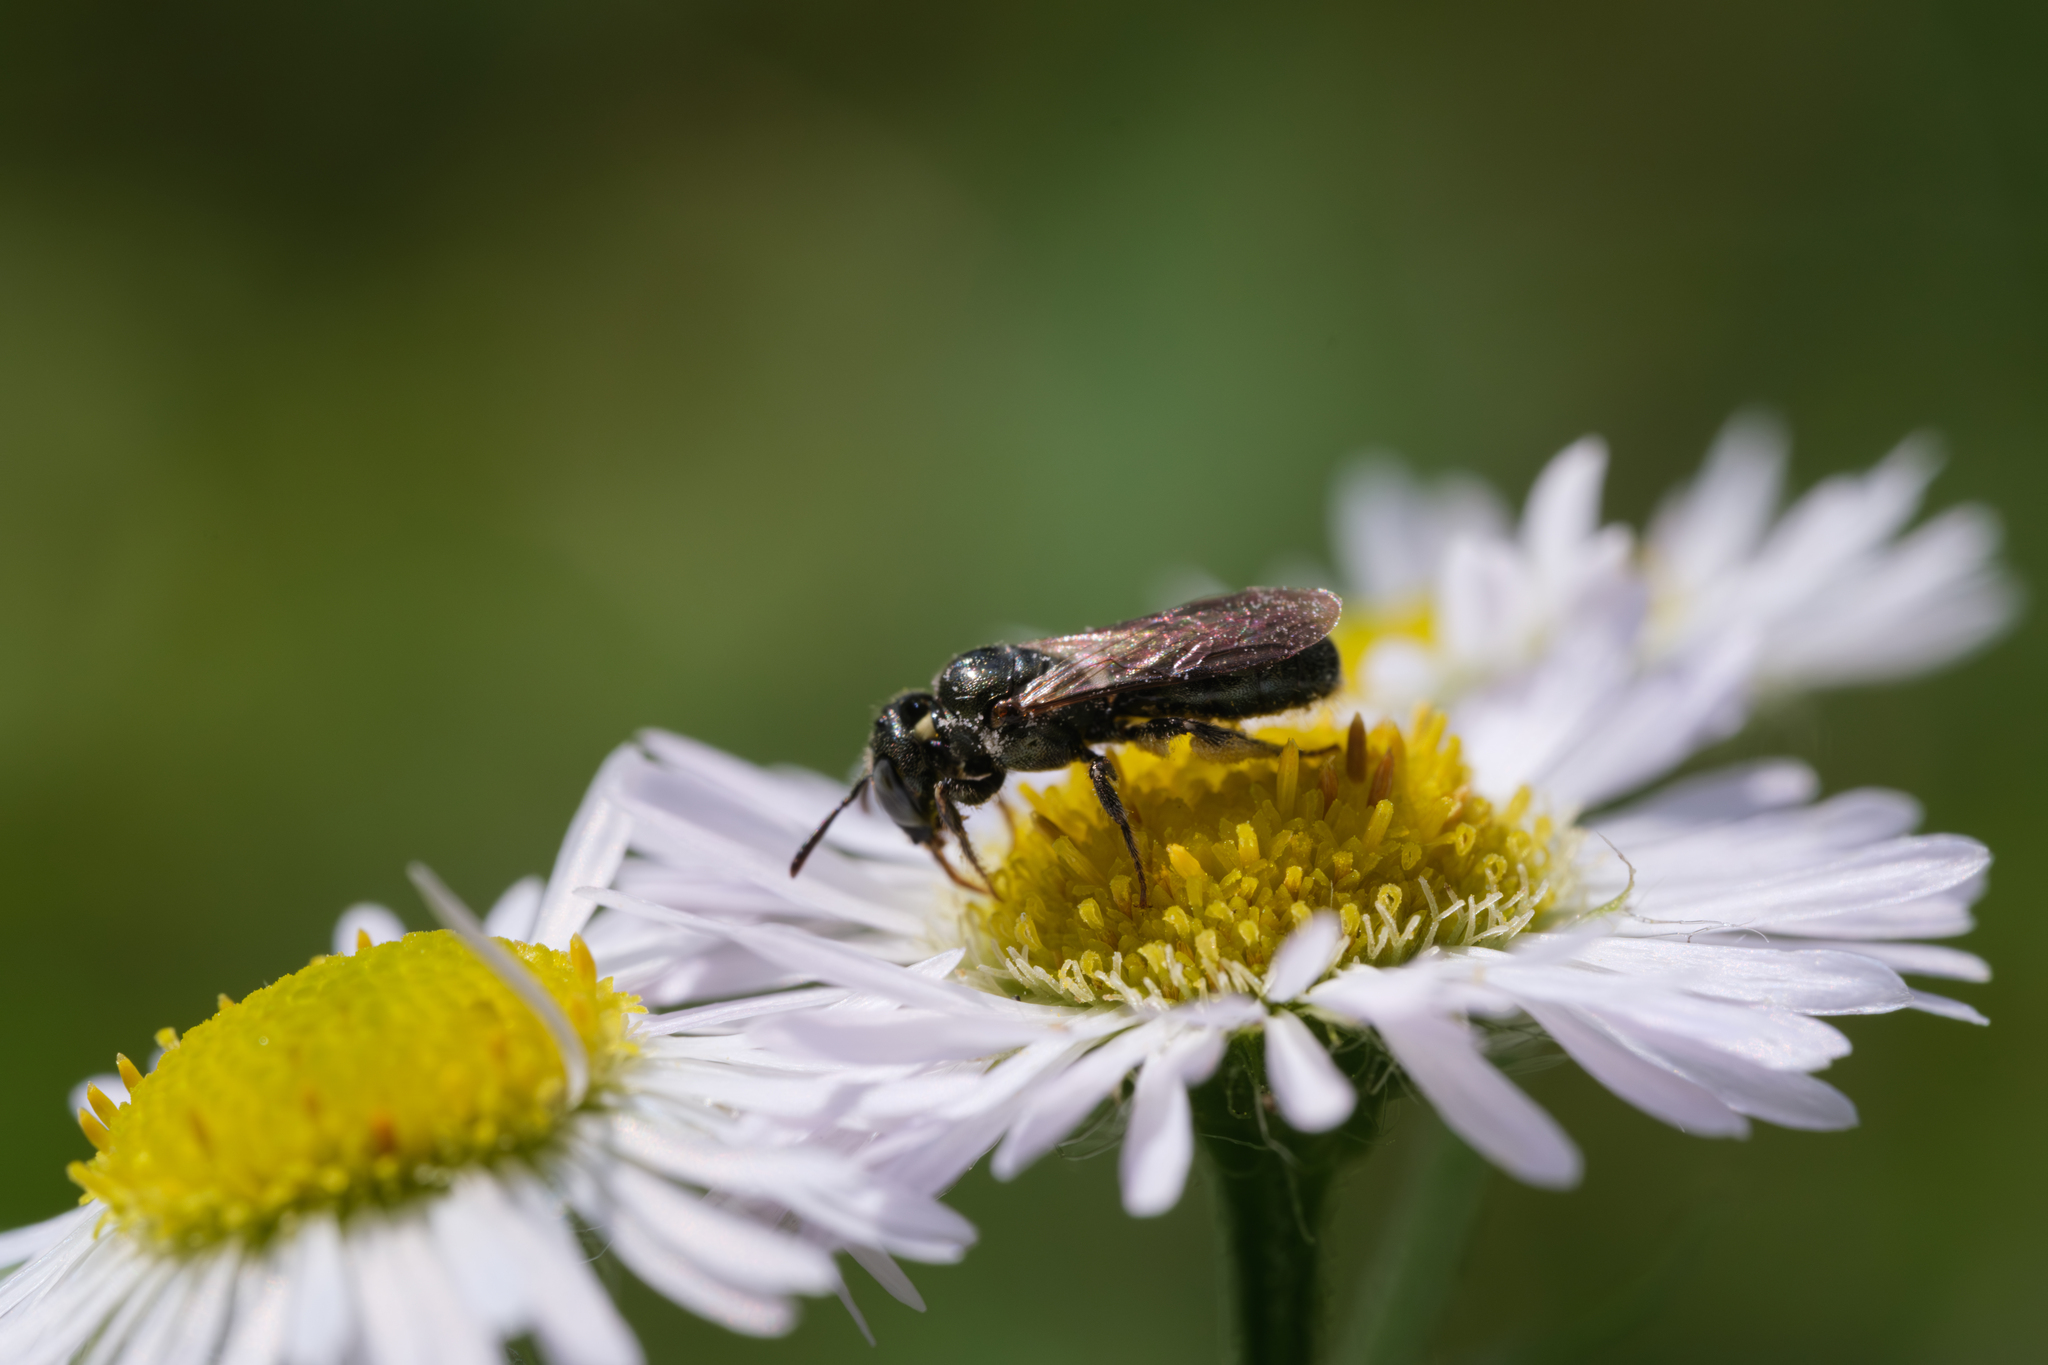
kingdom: Animalia
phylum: Arthropoda
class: Insecta
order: Hymenoptera
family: Apidae
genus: Ceratina
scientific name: Ceratina strenua
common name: Nimble carpenter bee
